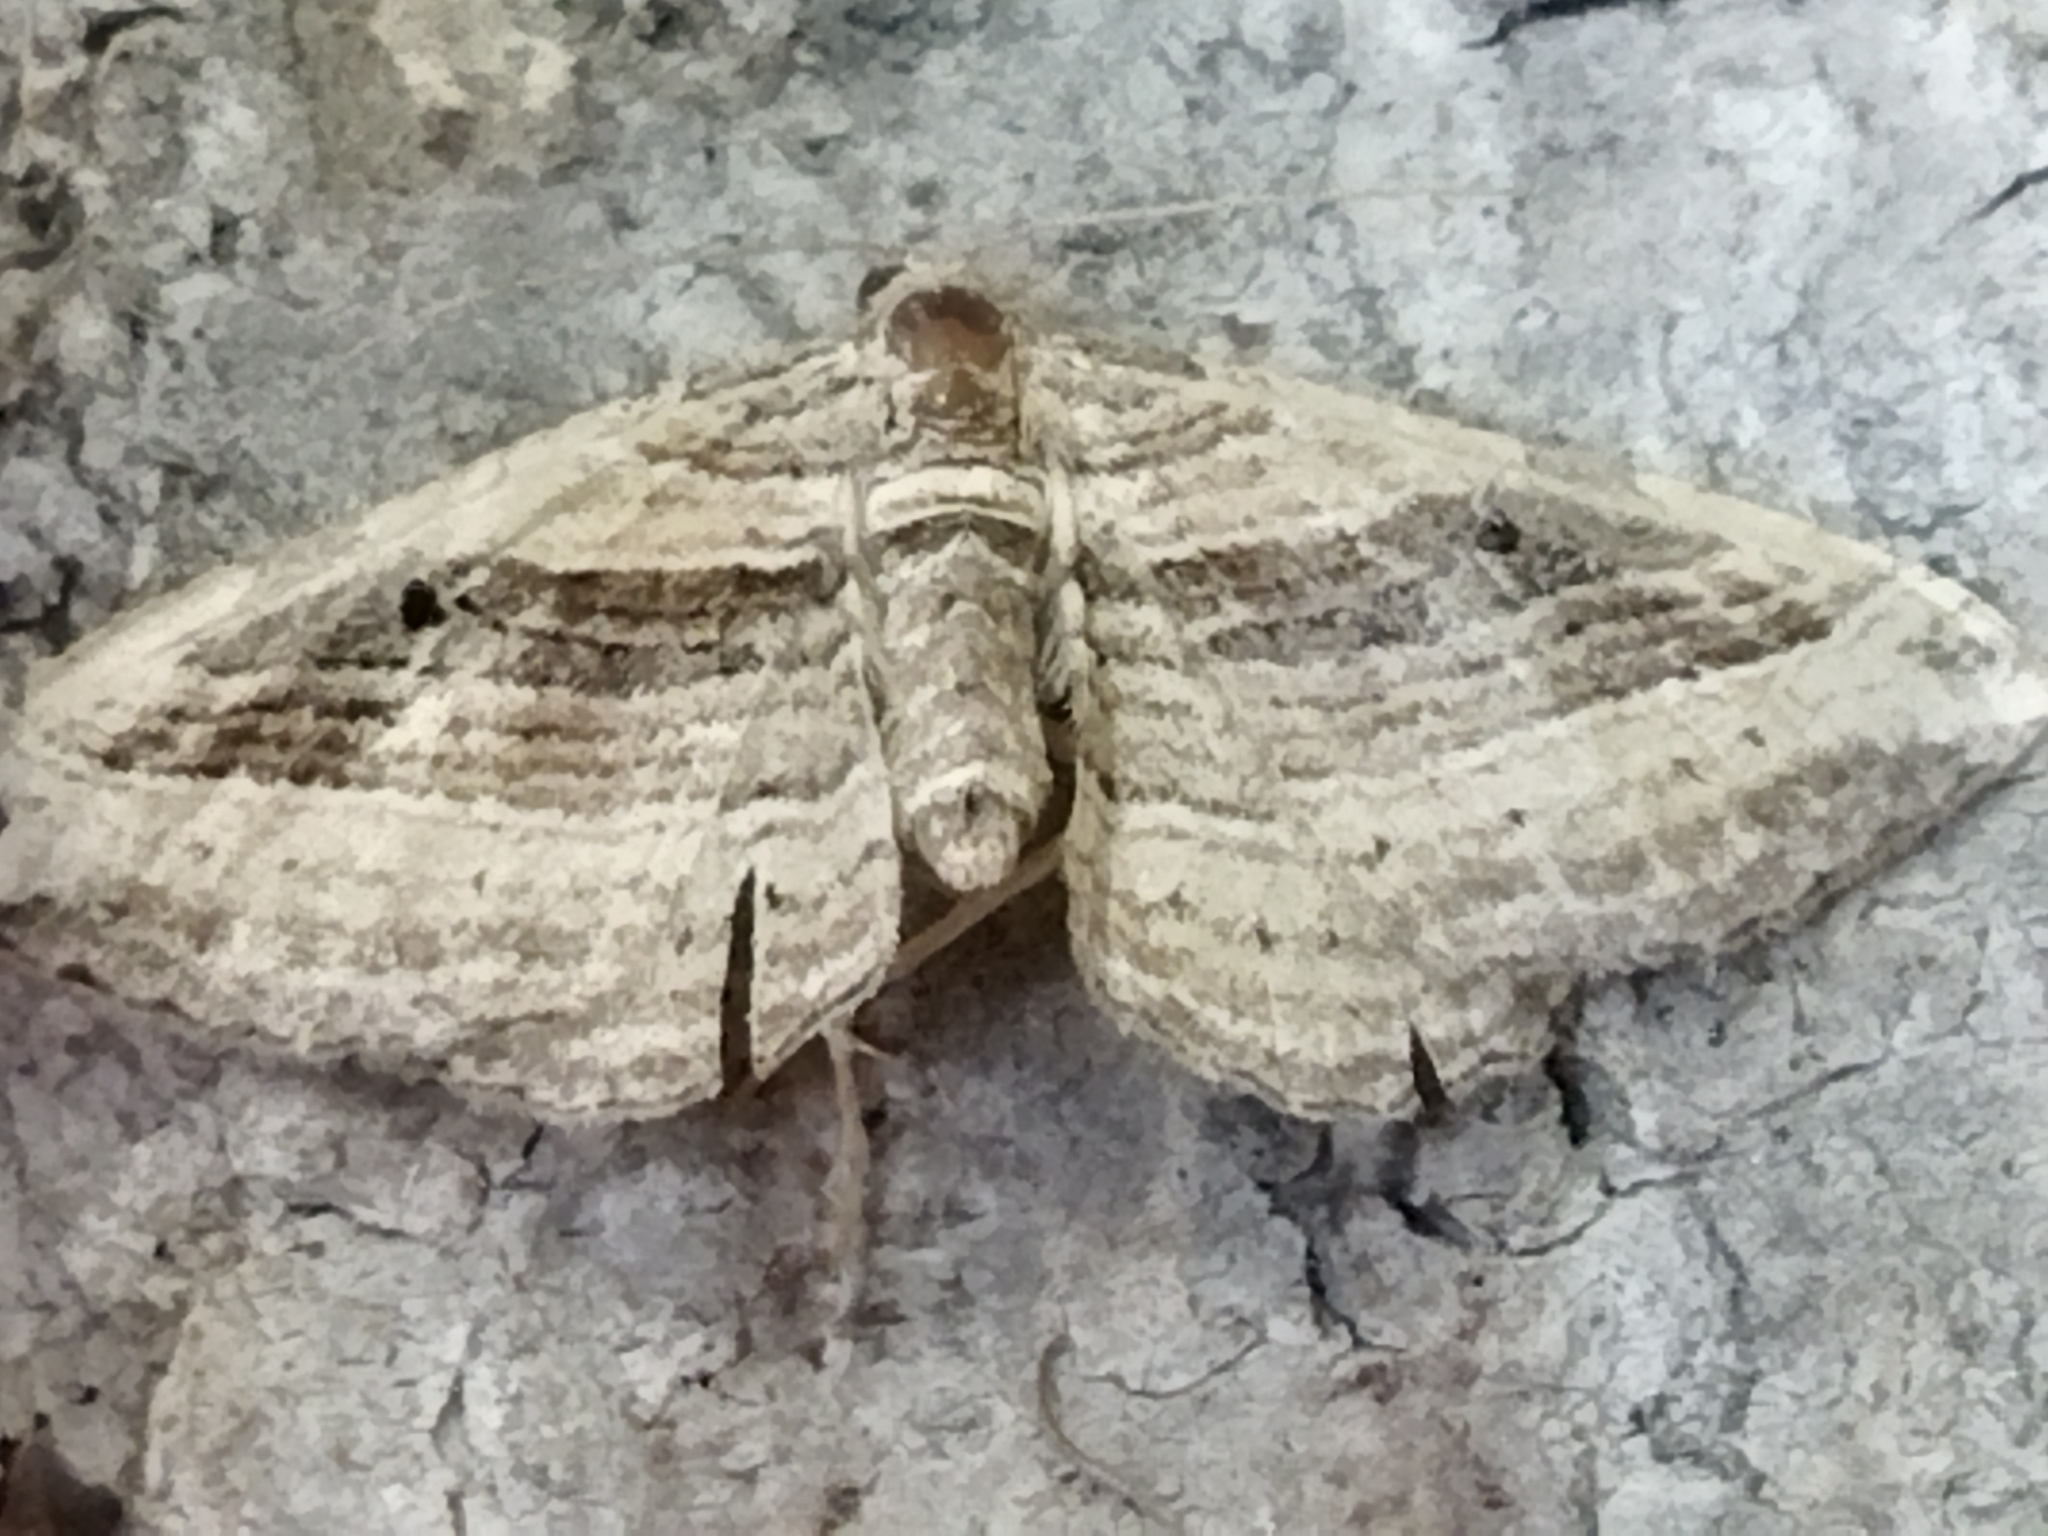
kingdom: Animalia
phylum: Arthropoda
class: Insecta
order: Lepidoptera
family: Geometridae
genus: Costaconvexa
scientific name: Costaconvexa polygrammata
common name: Many-lined
